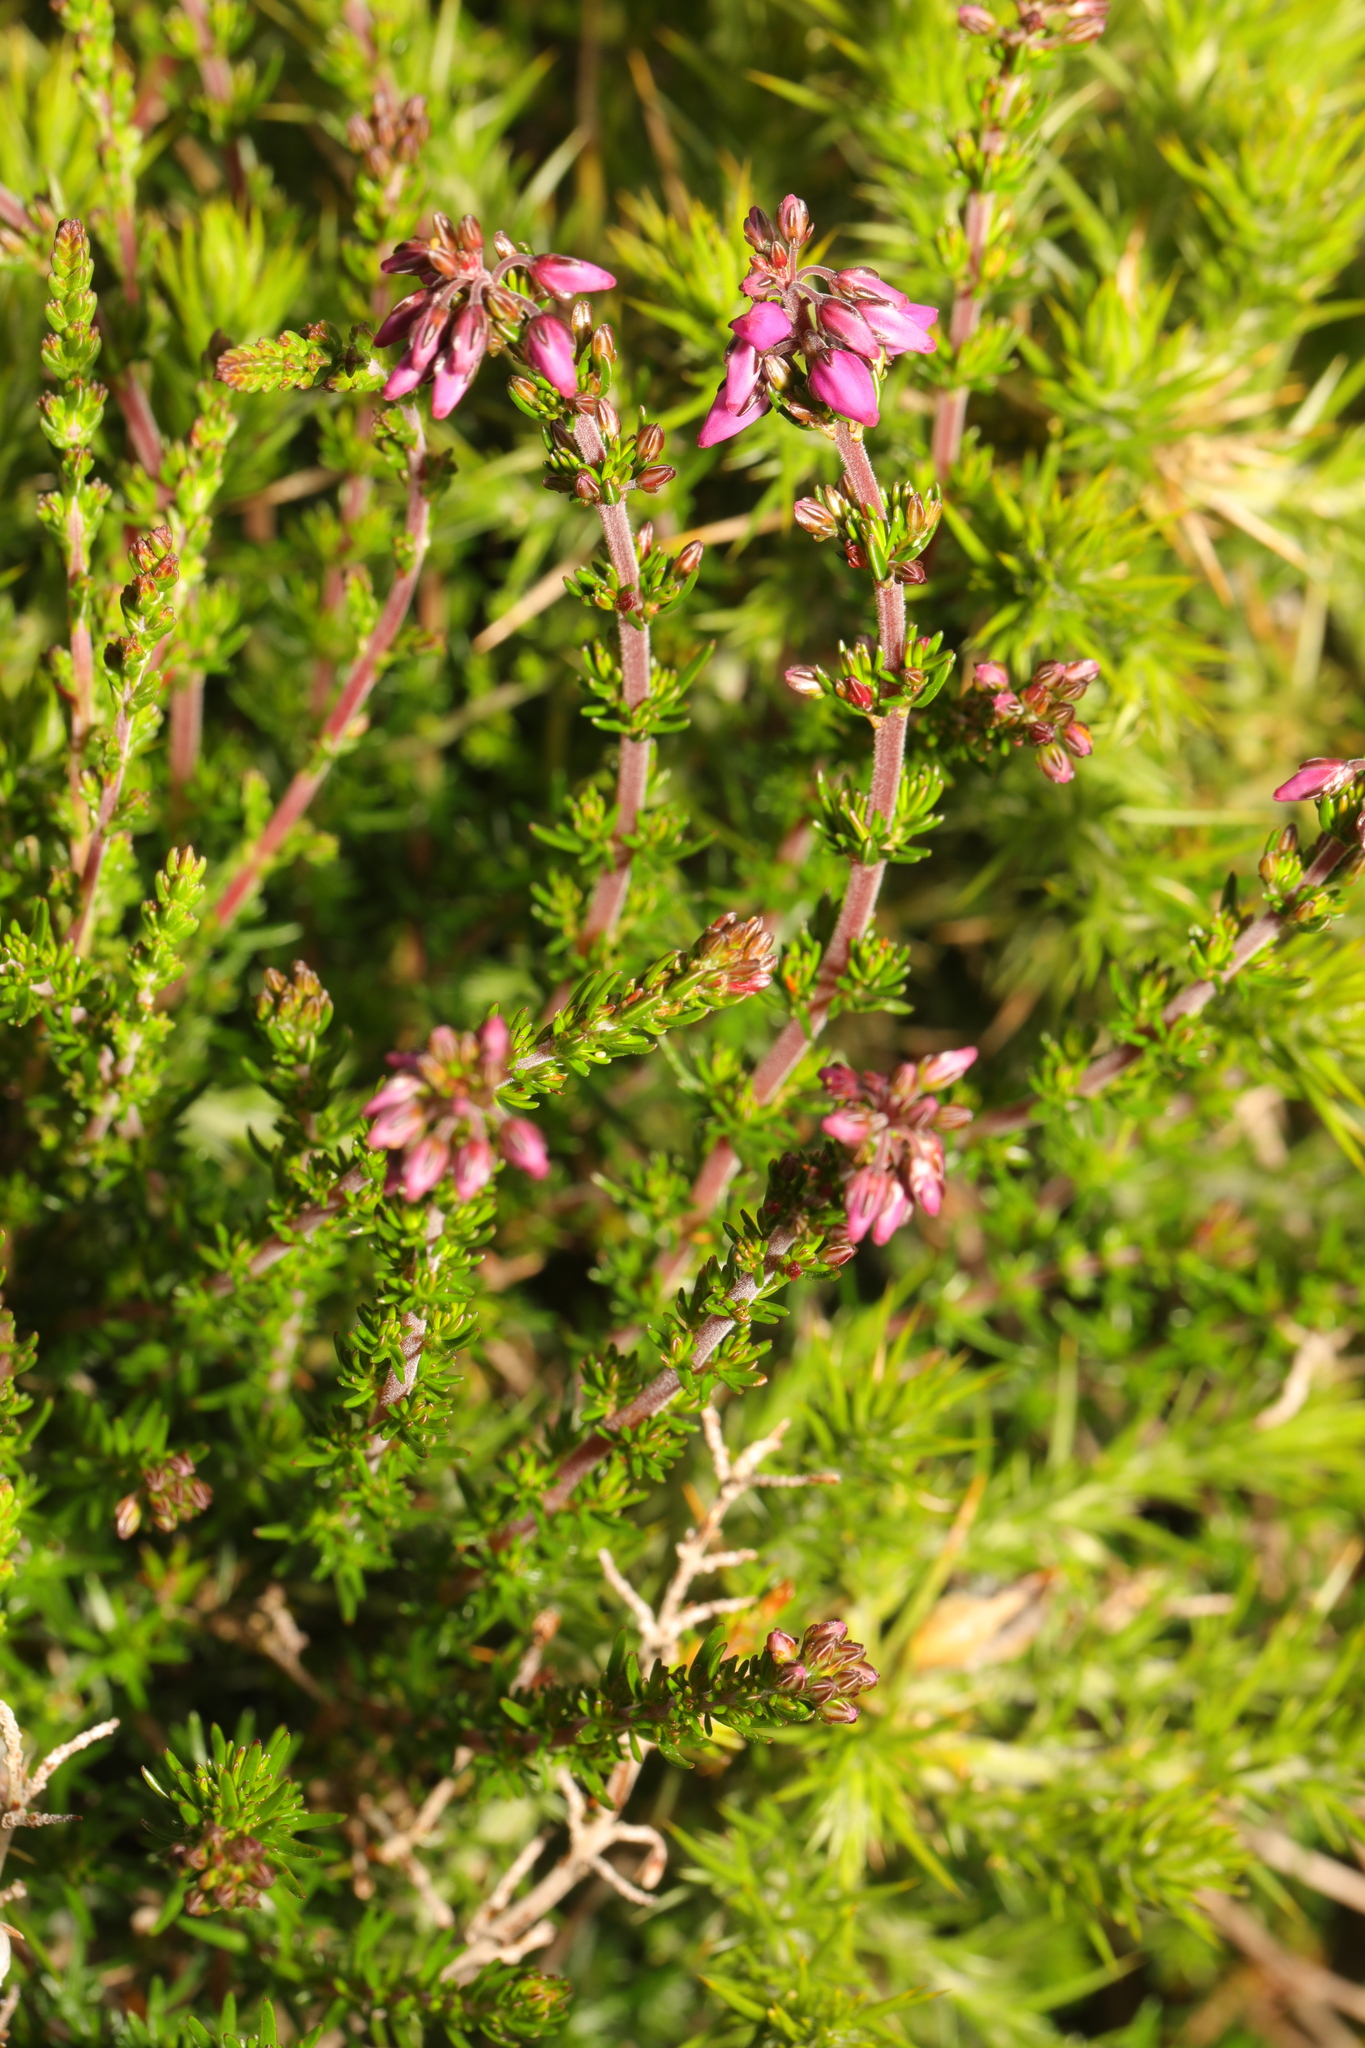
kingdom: Plantae
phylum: Tracheophyta
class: Magnoliopsida
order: Ericales
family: Ericaceae
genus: Erica
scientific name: Erica cinerea
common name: Bell heather
